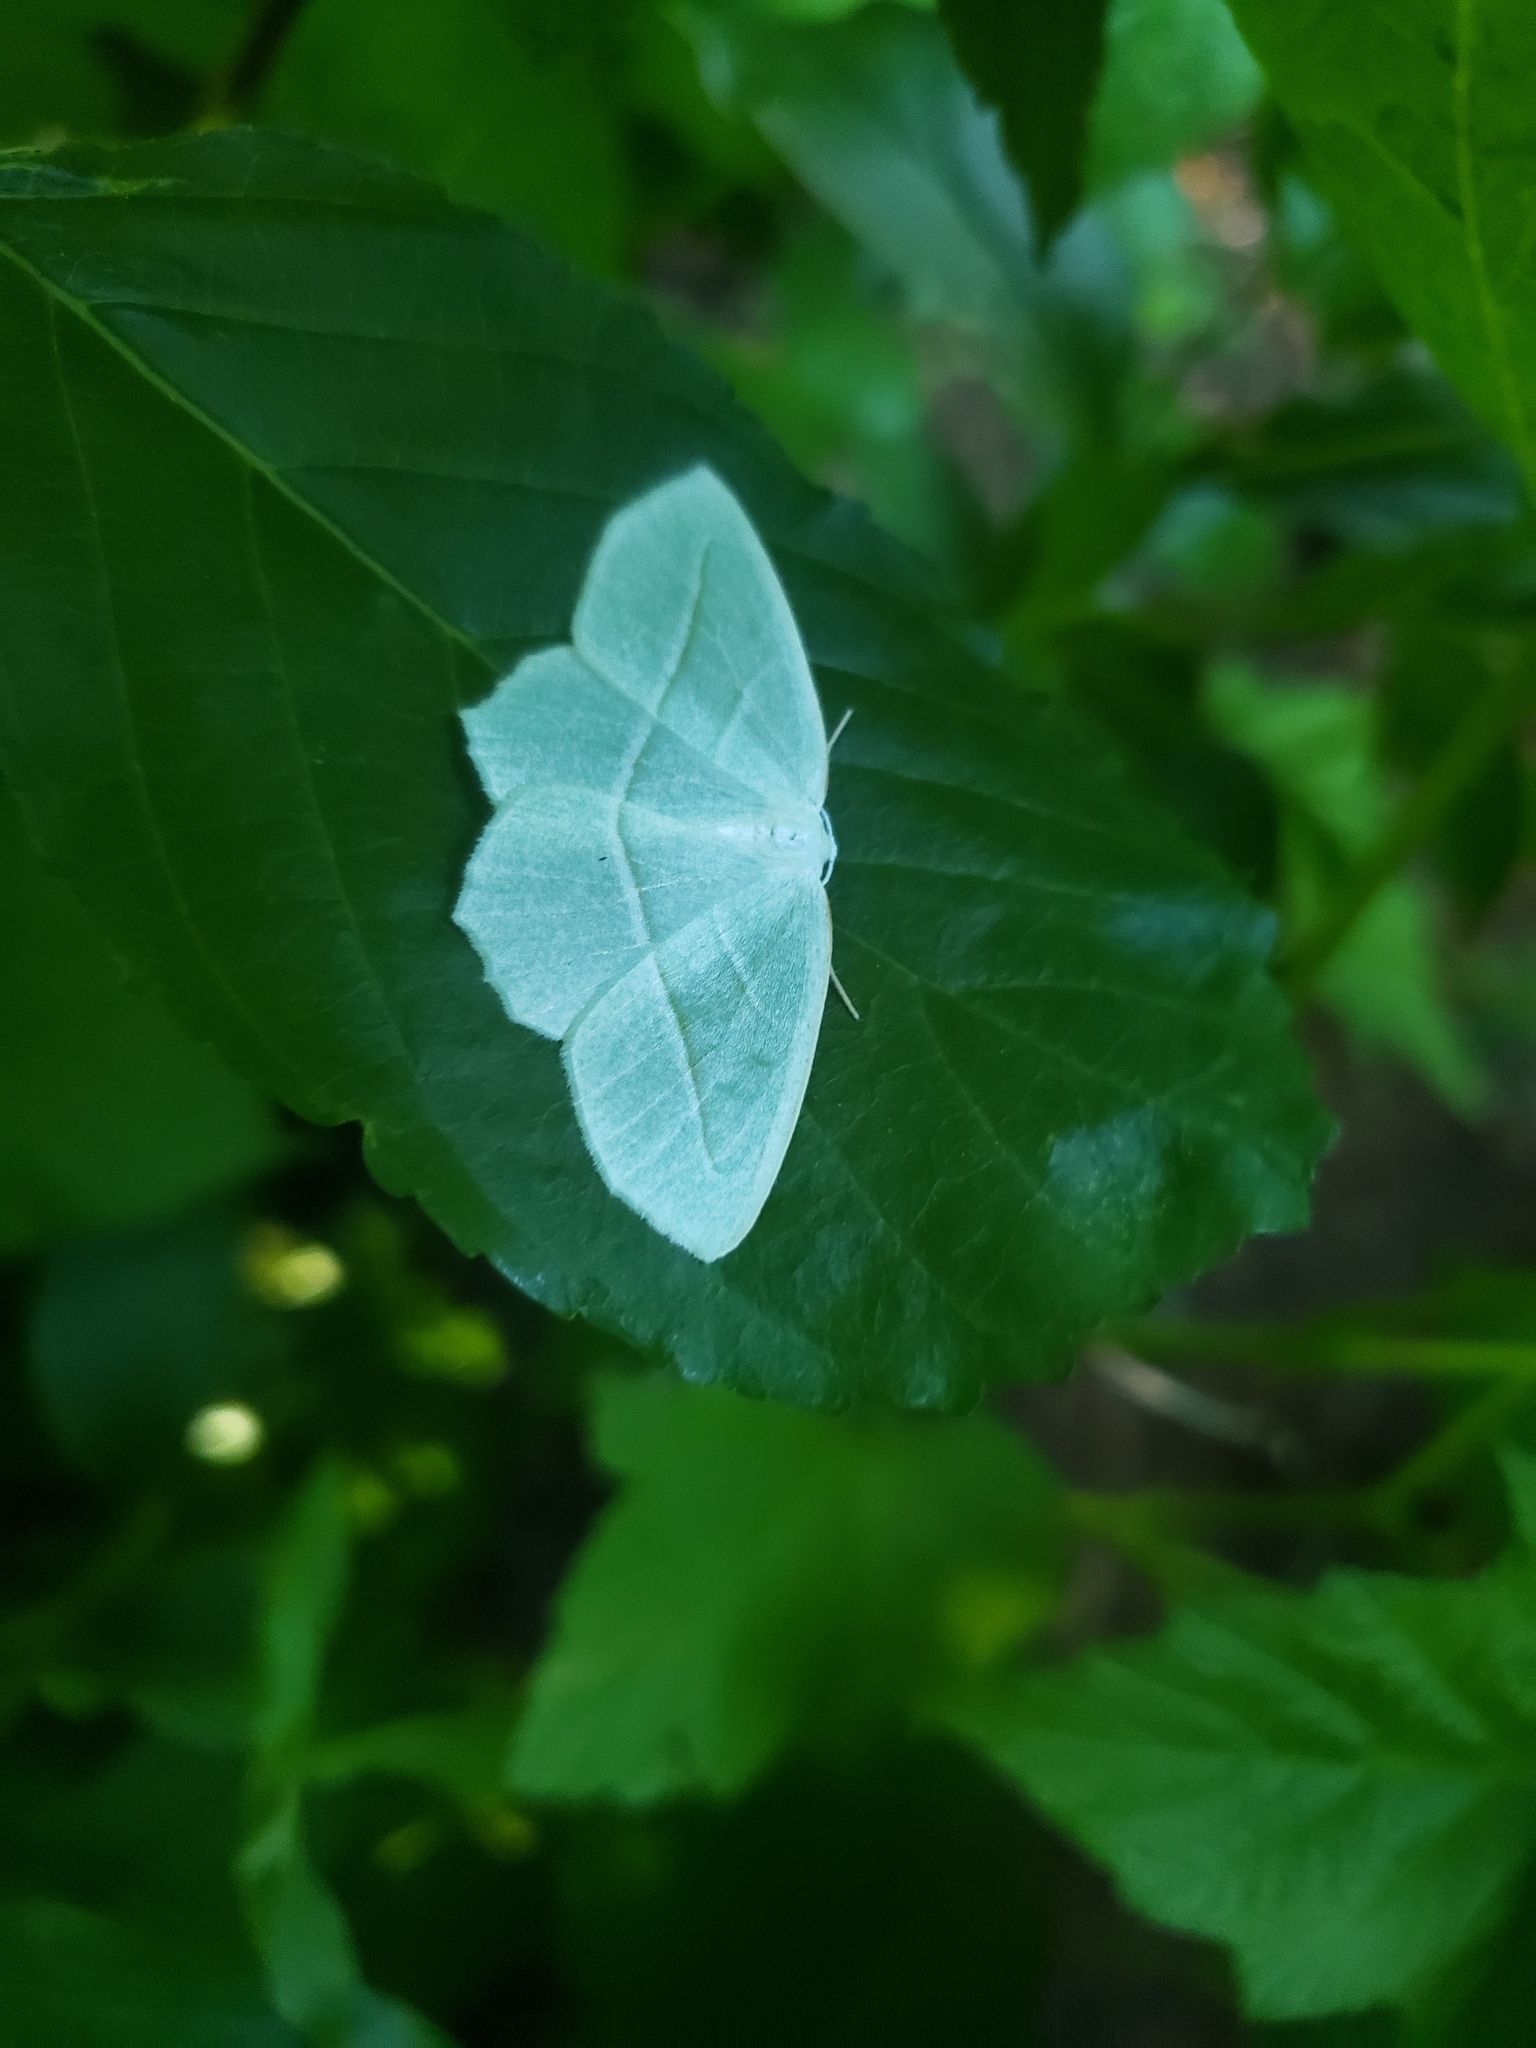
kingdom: Animalia
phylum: Arthropoda
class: Insecta
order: Lepidoptera
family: Geometridae
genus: Campaea
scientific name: Campaea perlata
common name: Fringed looper
